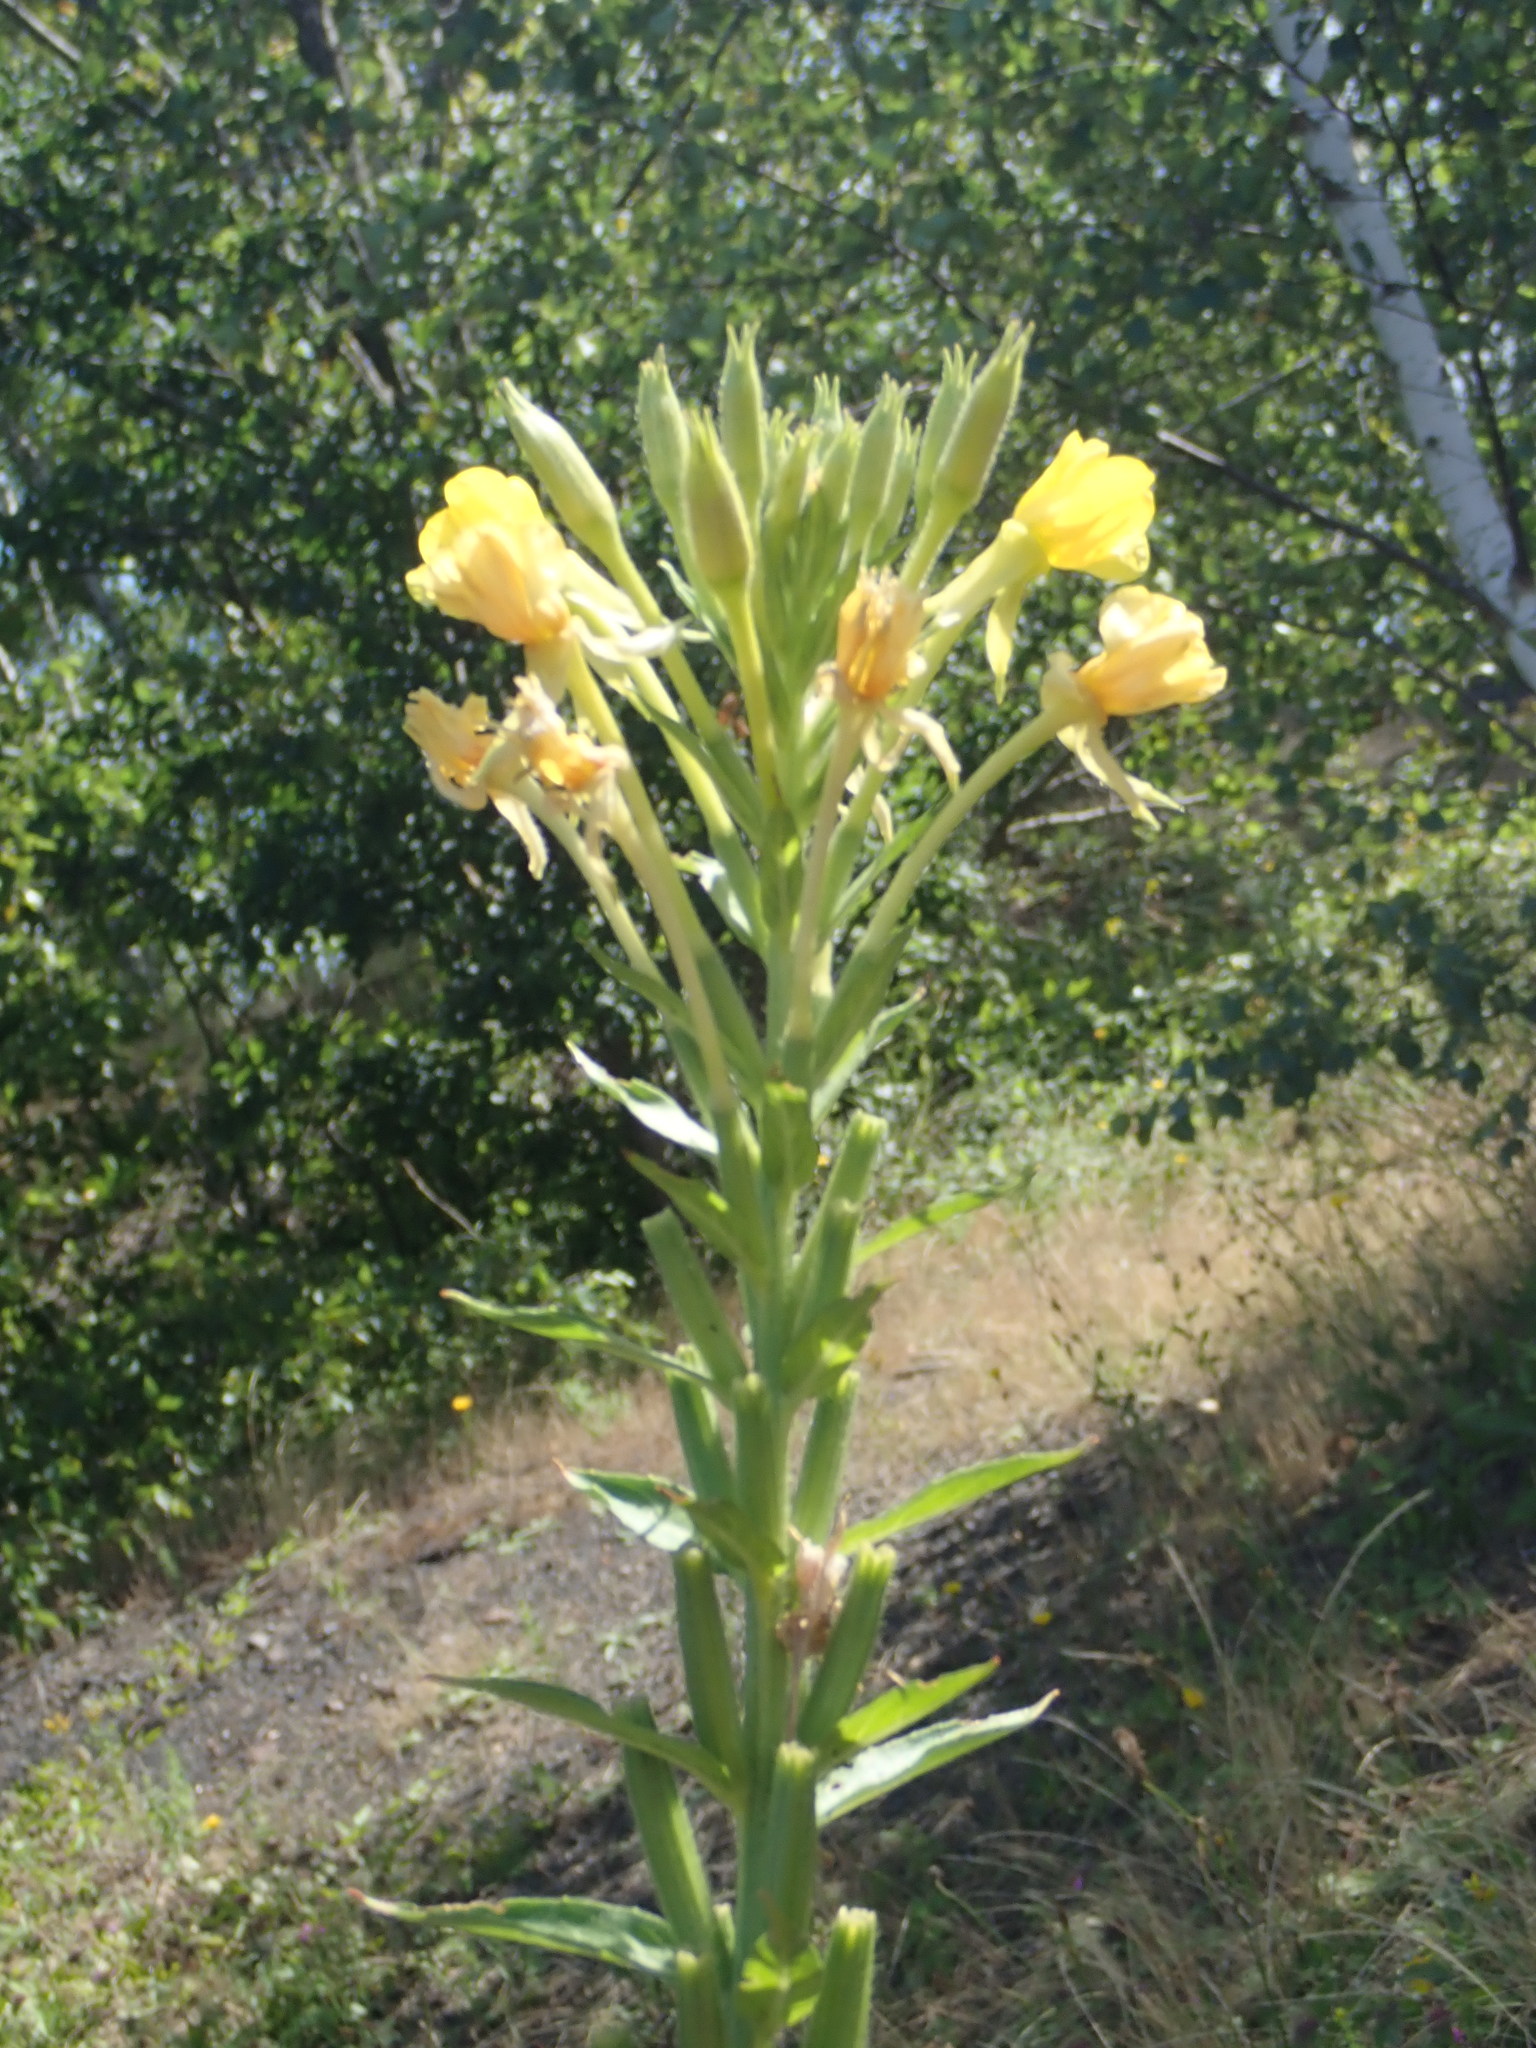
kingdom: Plantae
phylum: Tracheophyta
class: Magnoliopsida
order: Myrtales
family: Onagraceae
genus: Oenothera
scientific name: Oenothera parviflora
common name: Least evening-primrose
